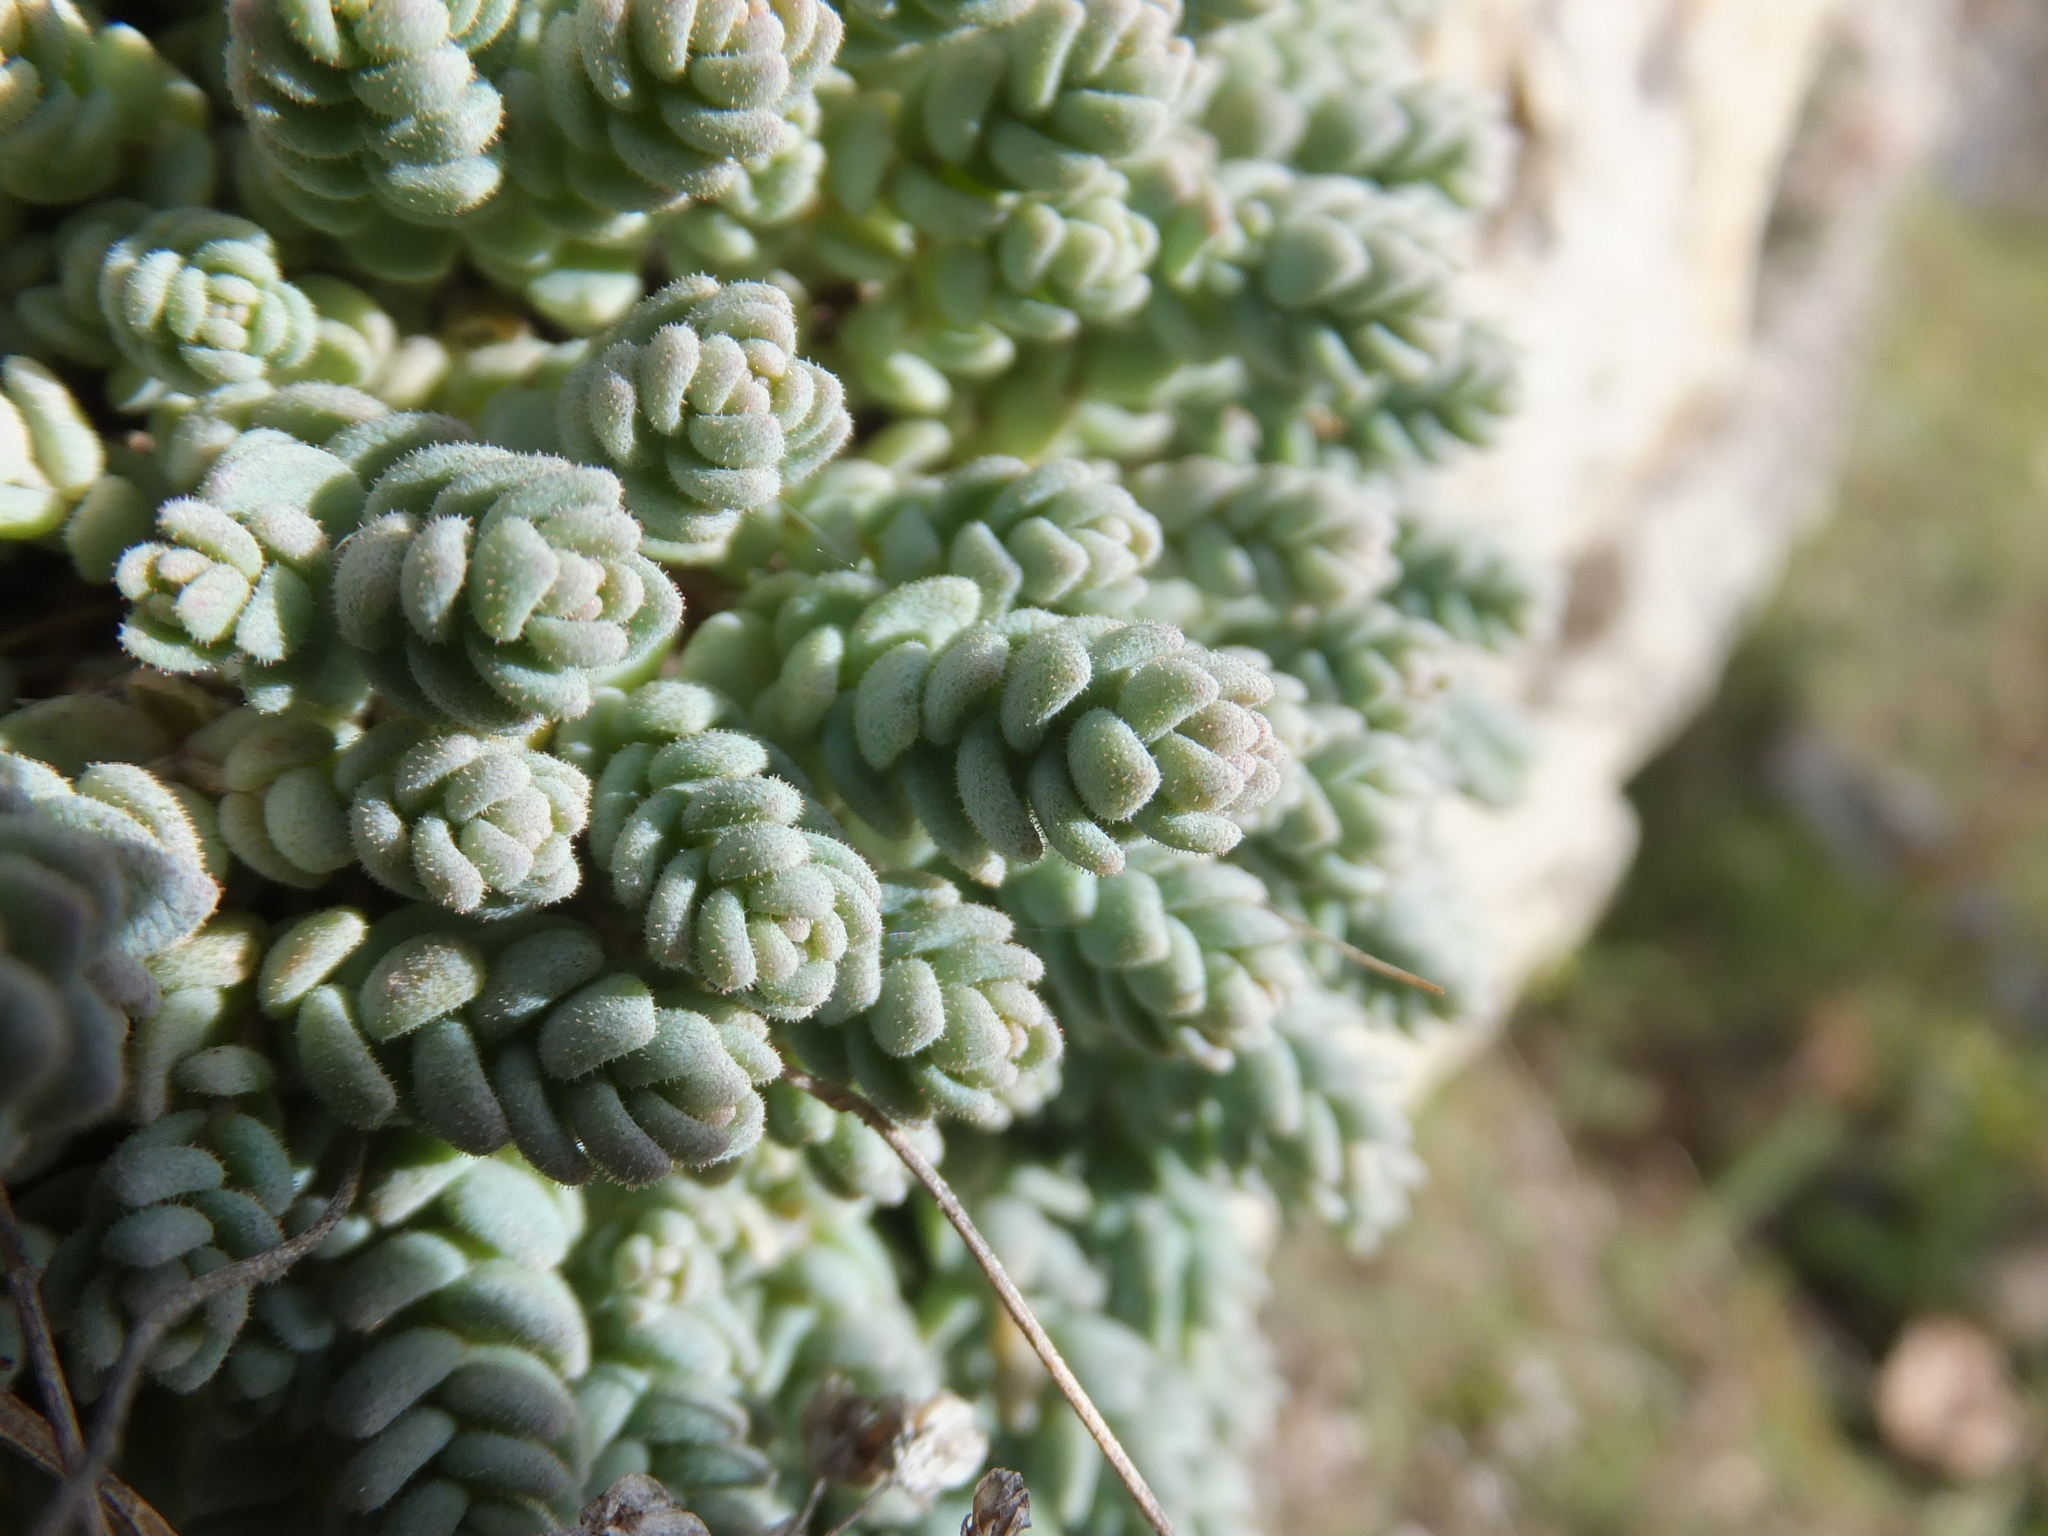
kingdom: Plantae
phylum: Tracheophyta
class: Magnoliopsida
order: Saxifragales
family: Crassulaceae
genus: Sedum
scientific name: Sedum dasyphyllum
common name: Thick-leaf stonecrop
